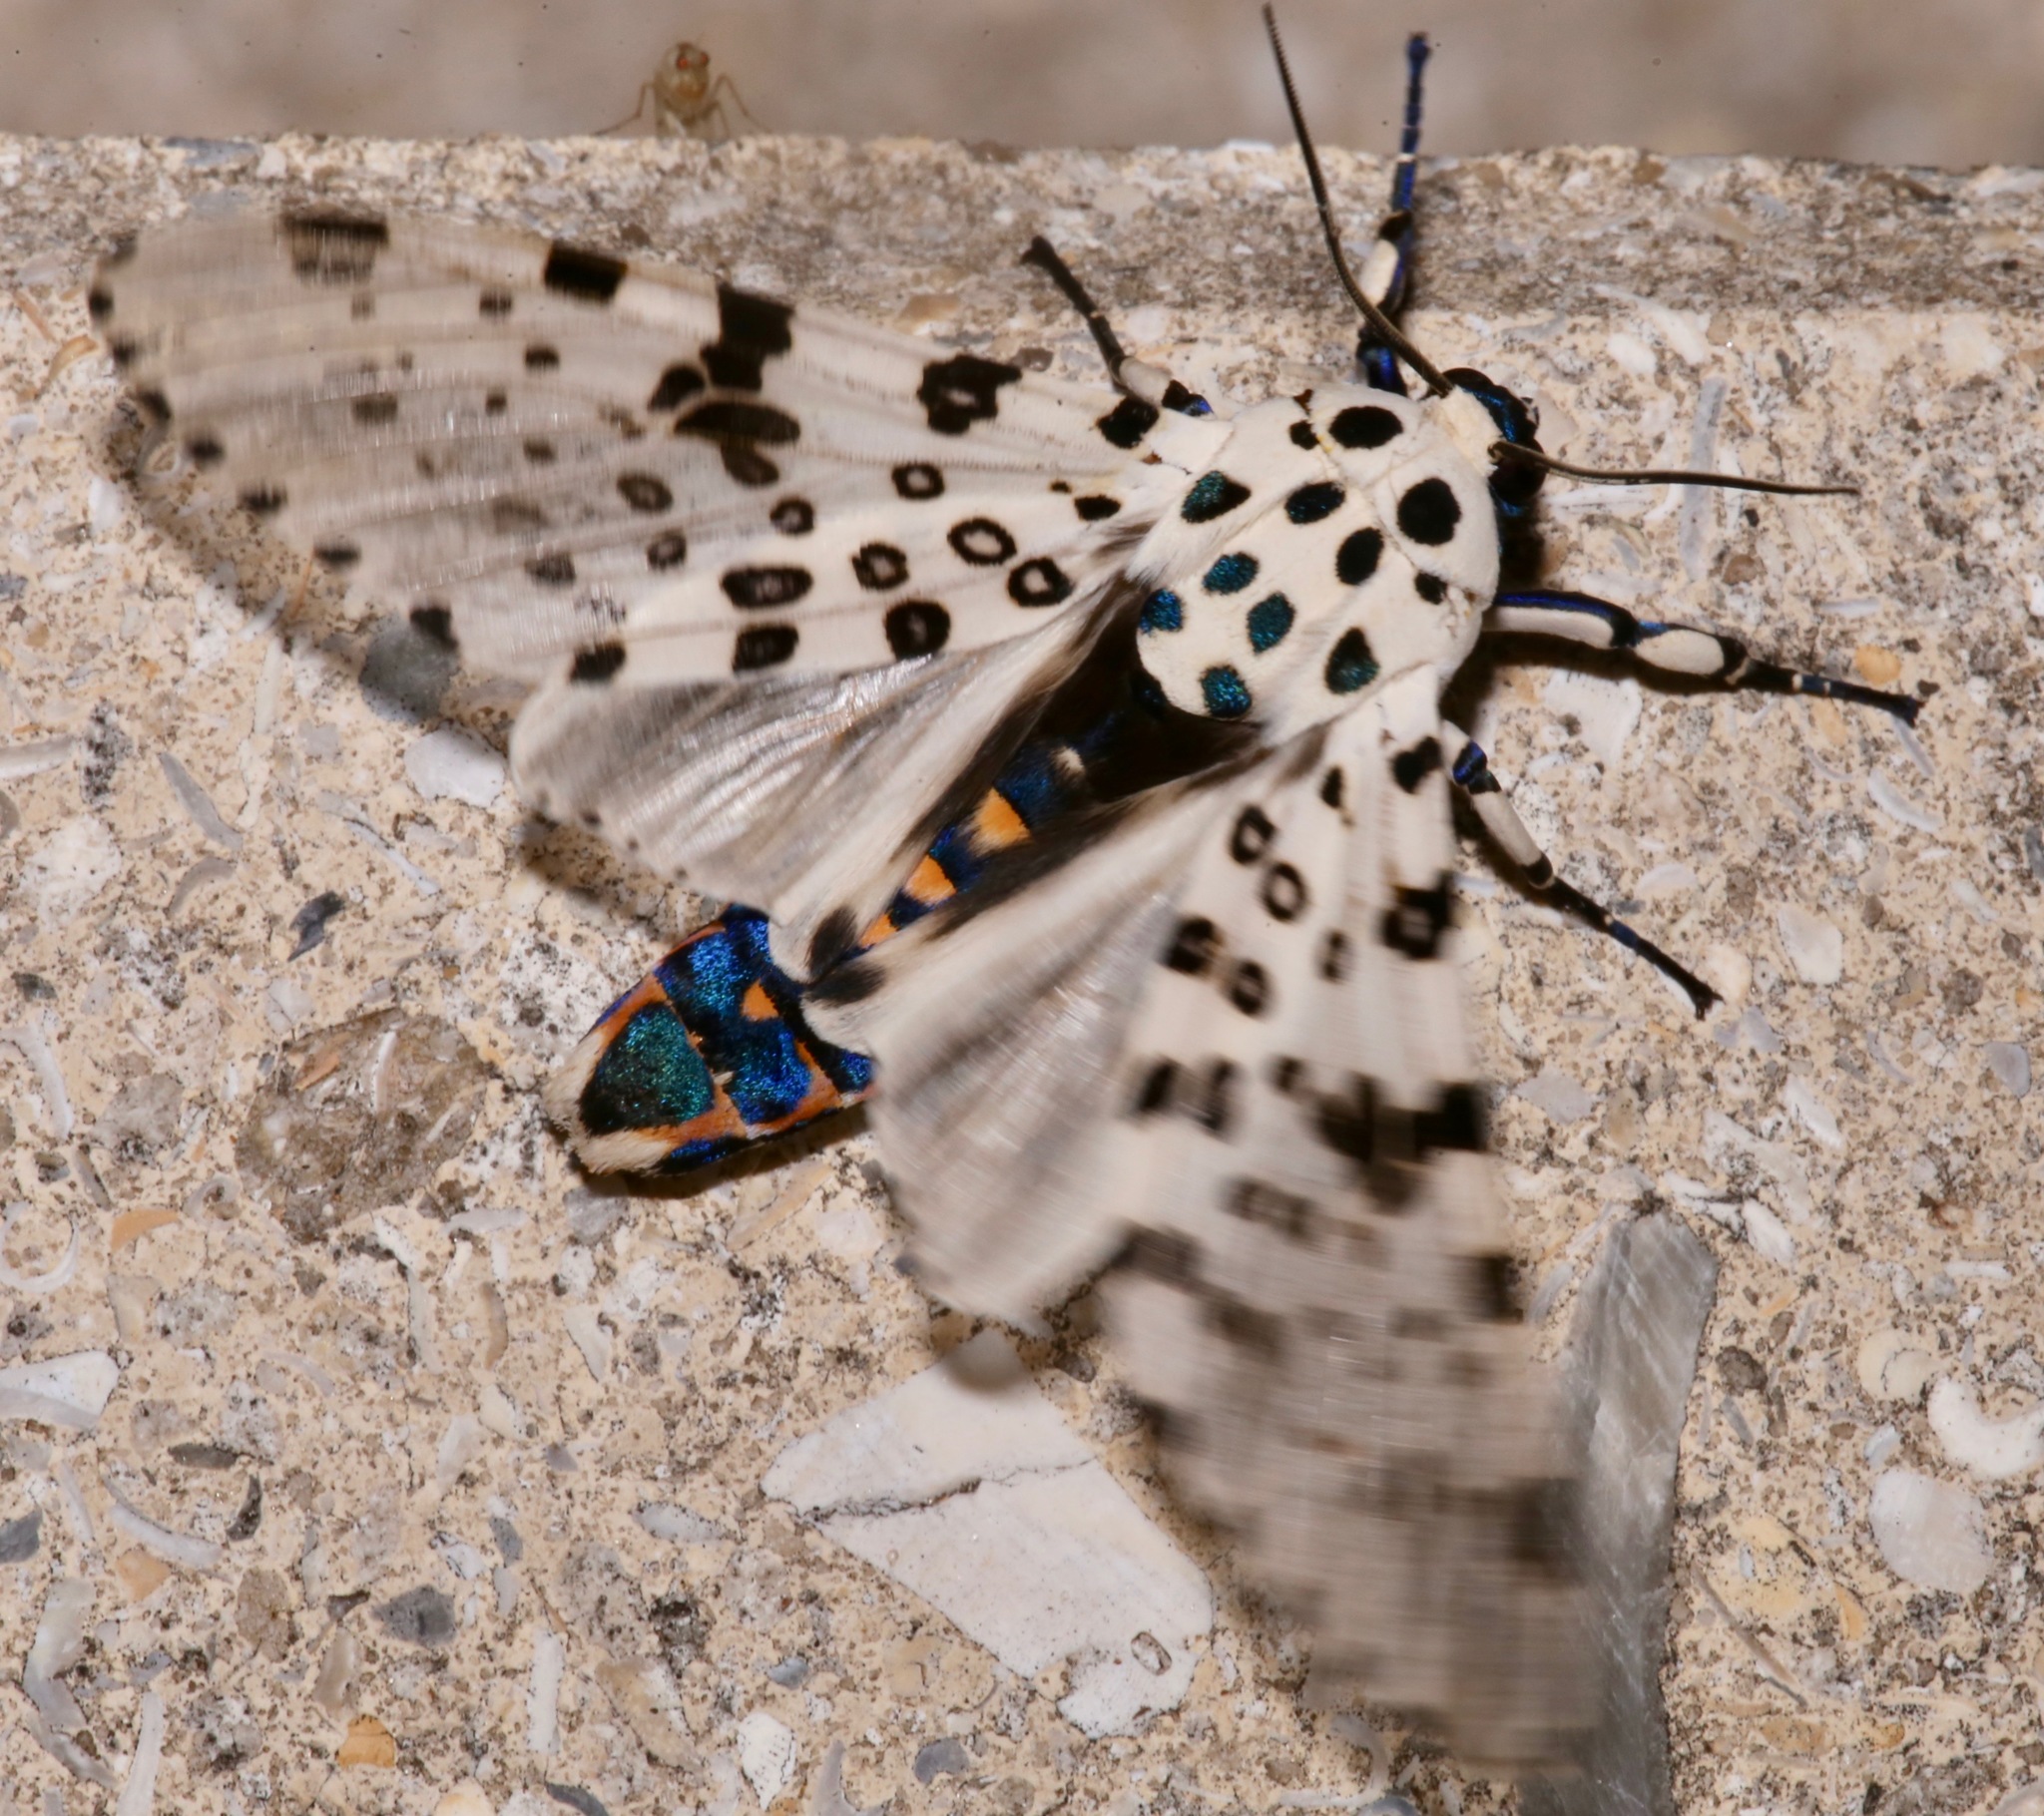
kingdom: Animalia
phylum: Arthropoda
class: Insecta
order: Lepidoptera
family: Erebidae
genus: Hypercompe
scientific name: Hypercompe scribonia
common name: Giant leopard moth
